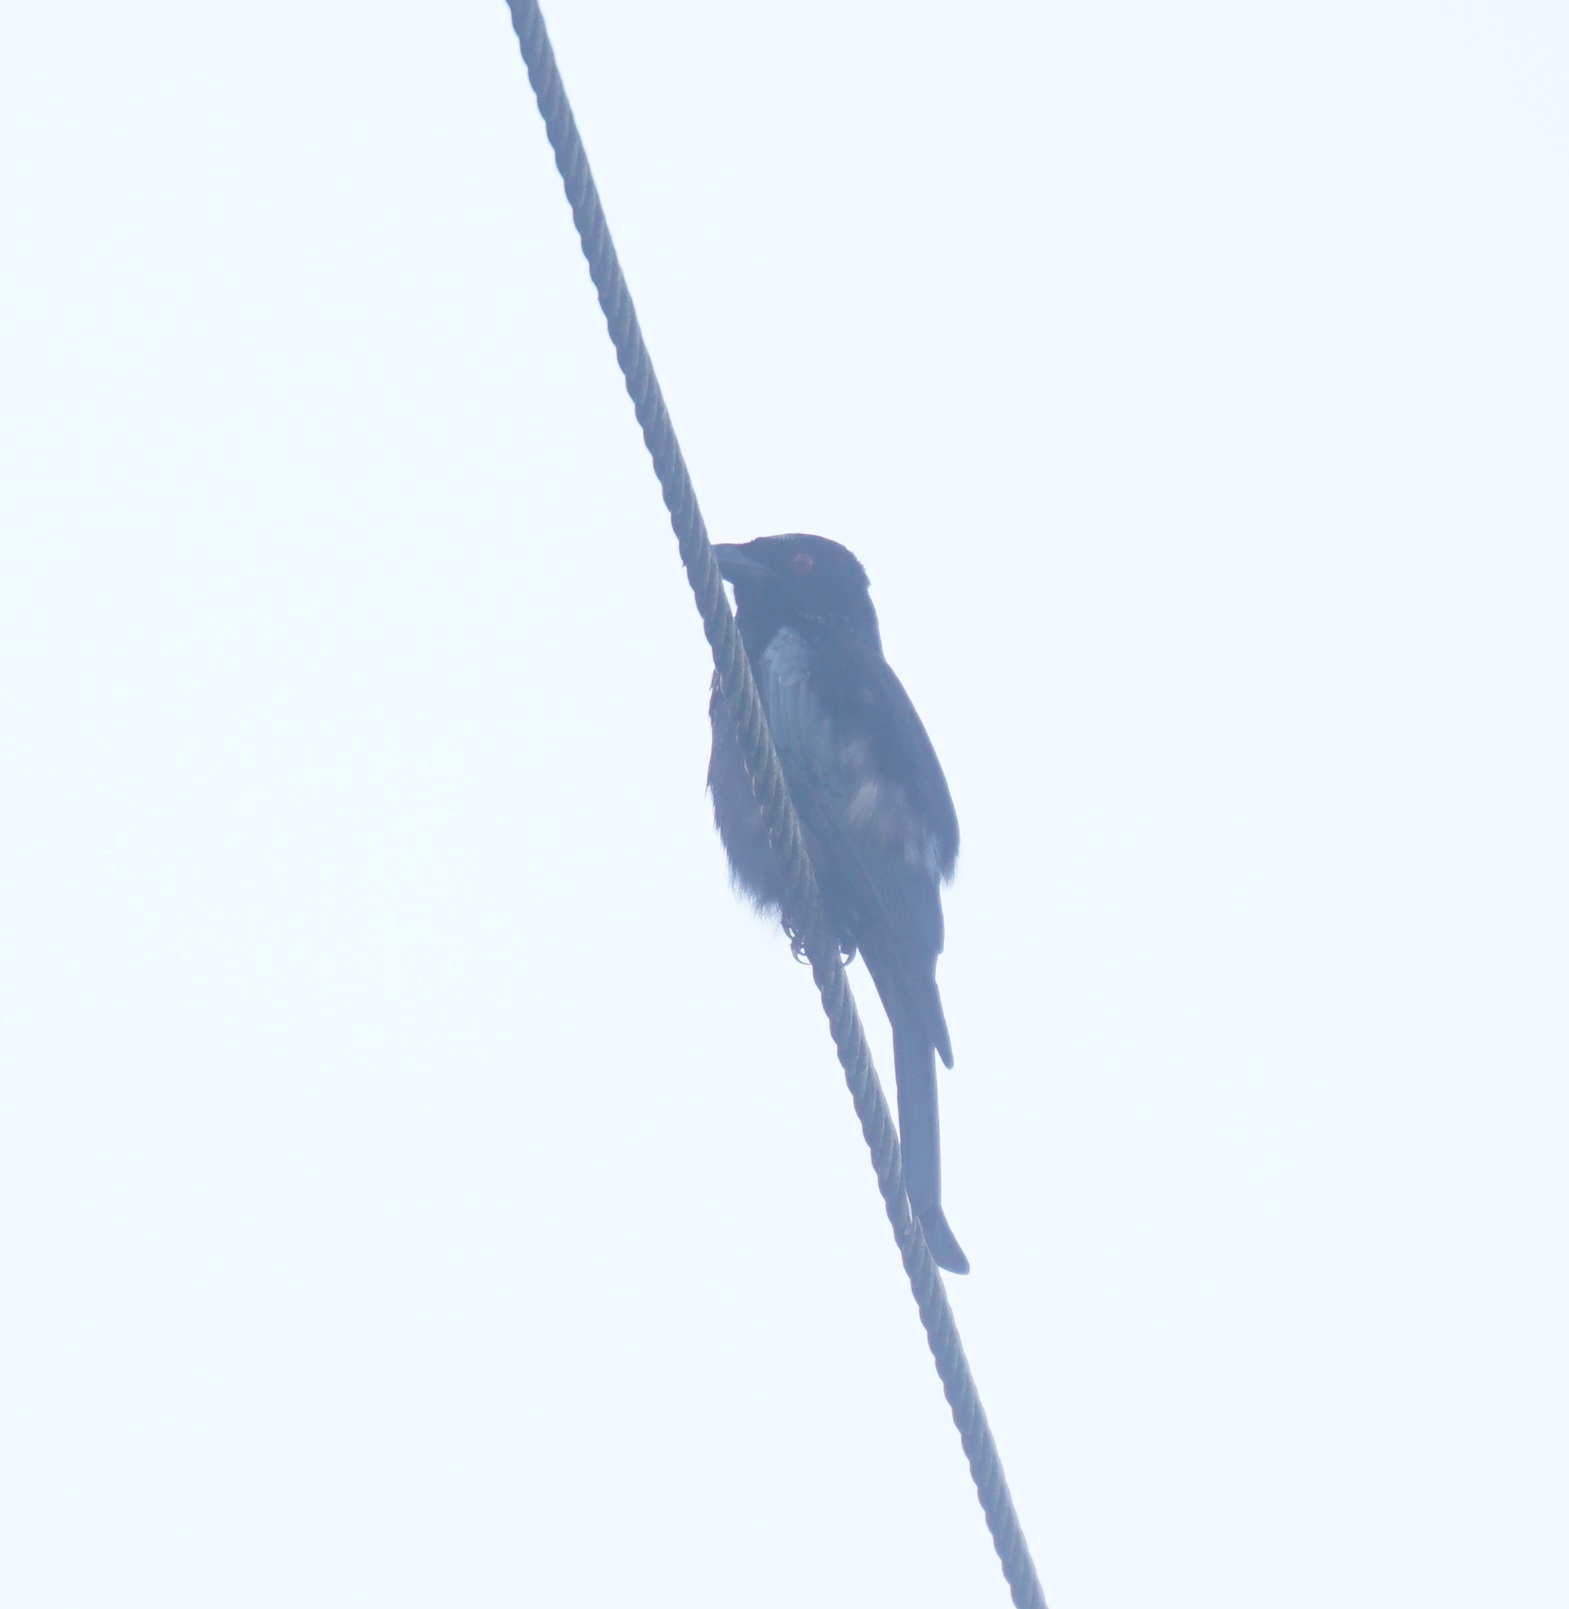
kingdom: Animalia
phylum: Chordata
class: Aves
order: Passeriformes
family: Dicruridae
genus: Dicrurus
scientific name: Dicrurus bracteatus
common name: Spangled drongo
